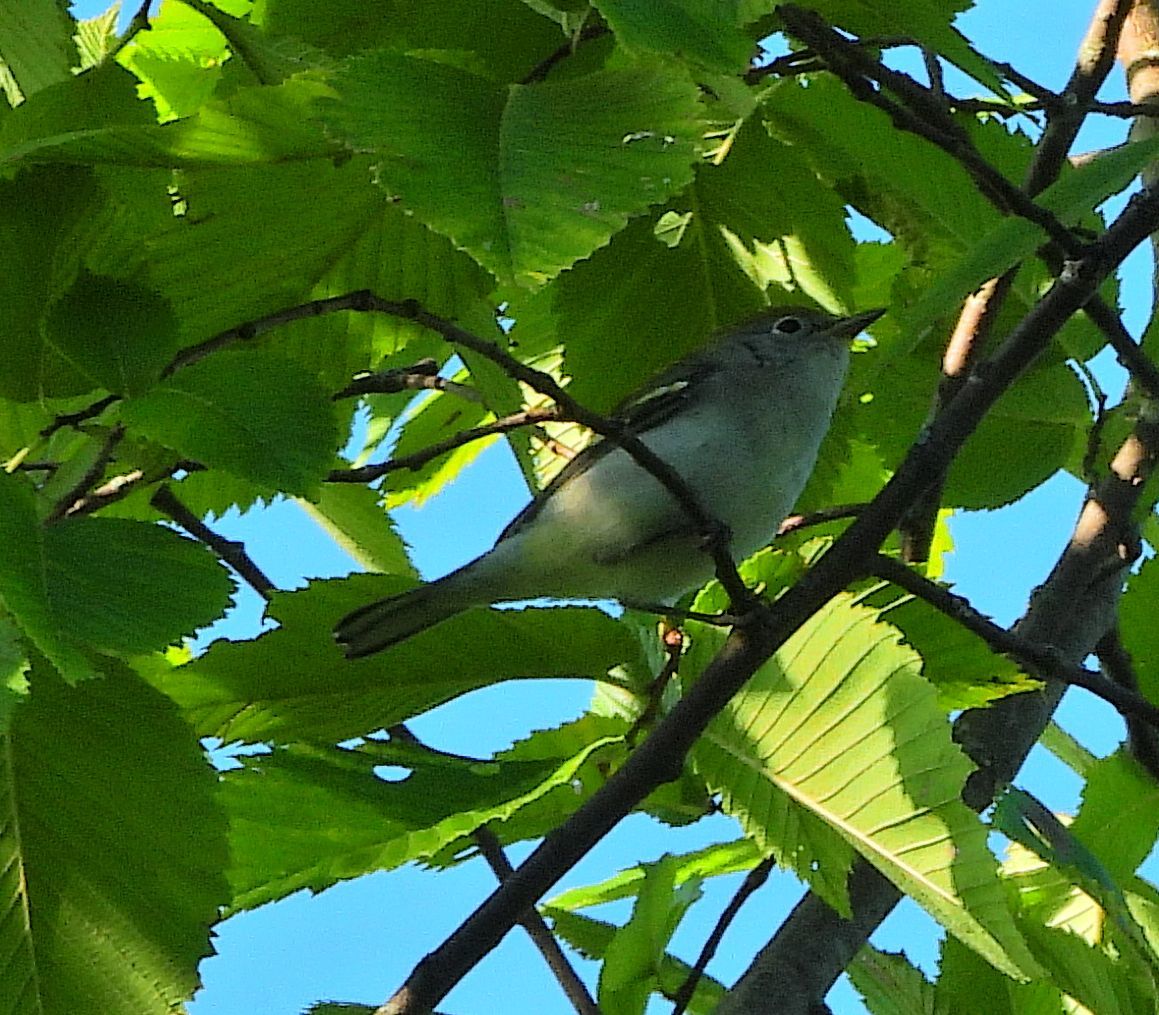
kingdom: Animalia
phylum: Chordata
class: Aves
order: Passeriformes
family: Parulidae
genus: Setophaga
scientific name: Setophaga pensylvanica
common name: Chestnut-sided warbler
